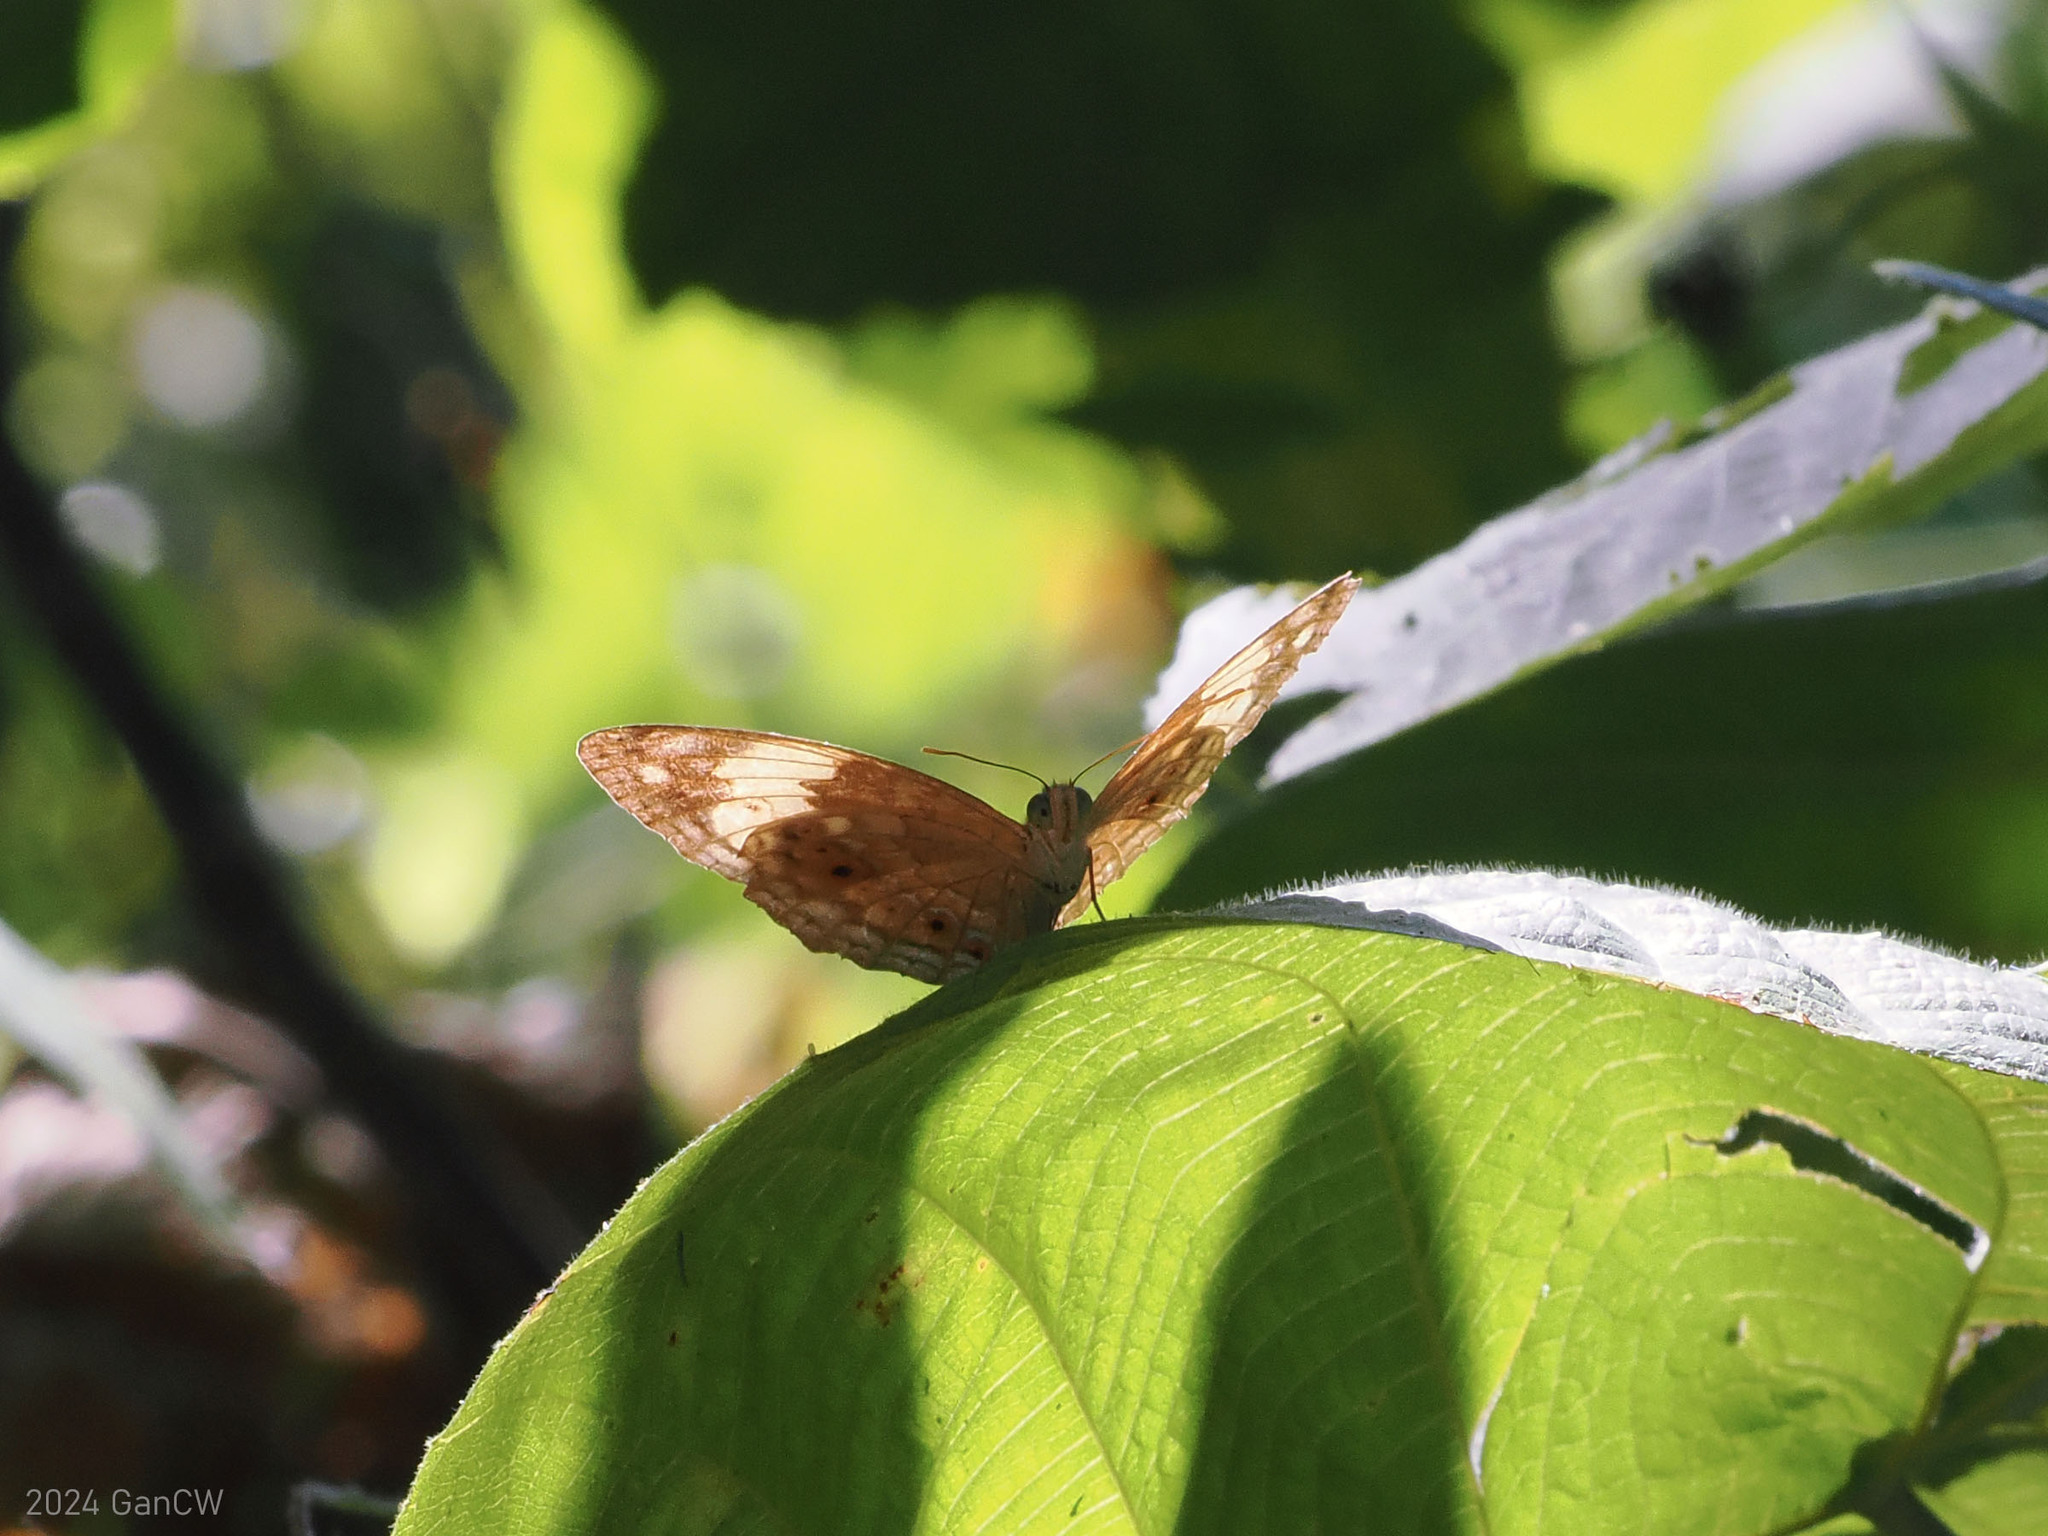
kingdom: Animalia
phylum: Arthropoda
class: Insecta
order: Lepidoptera
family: Nymphalidae
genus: Cupha
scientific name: Cupha erymanthis
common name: Rustic
